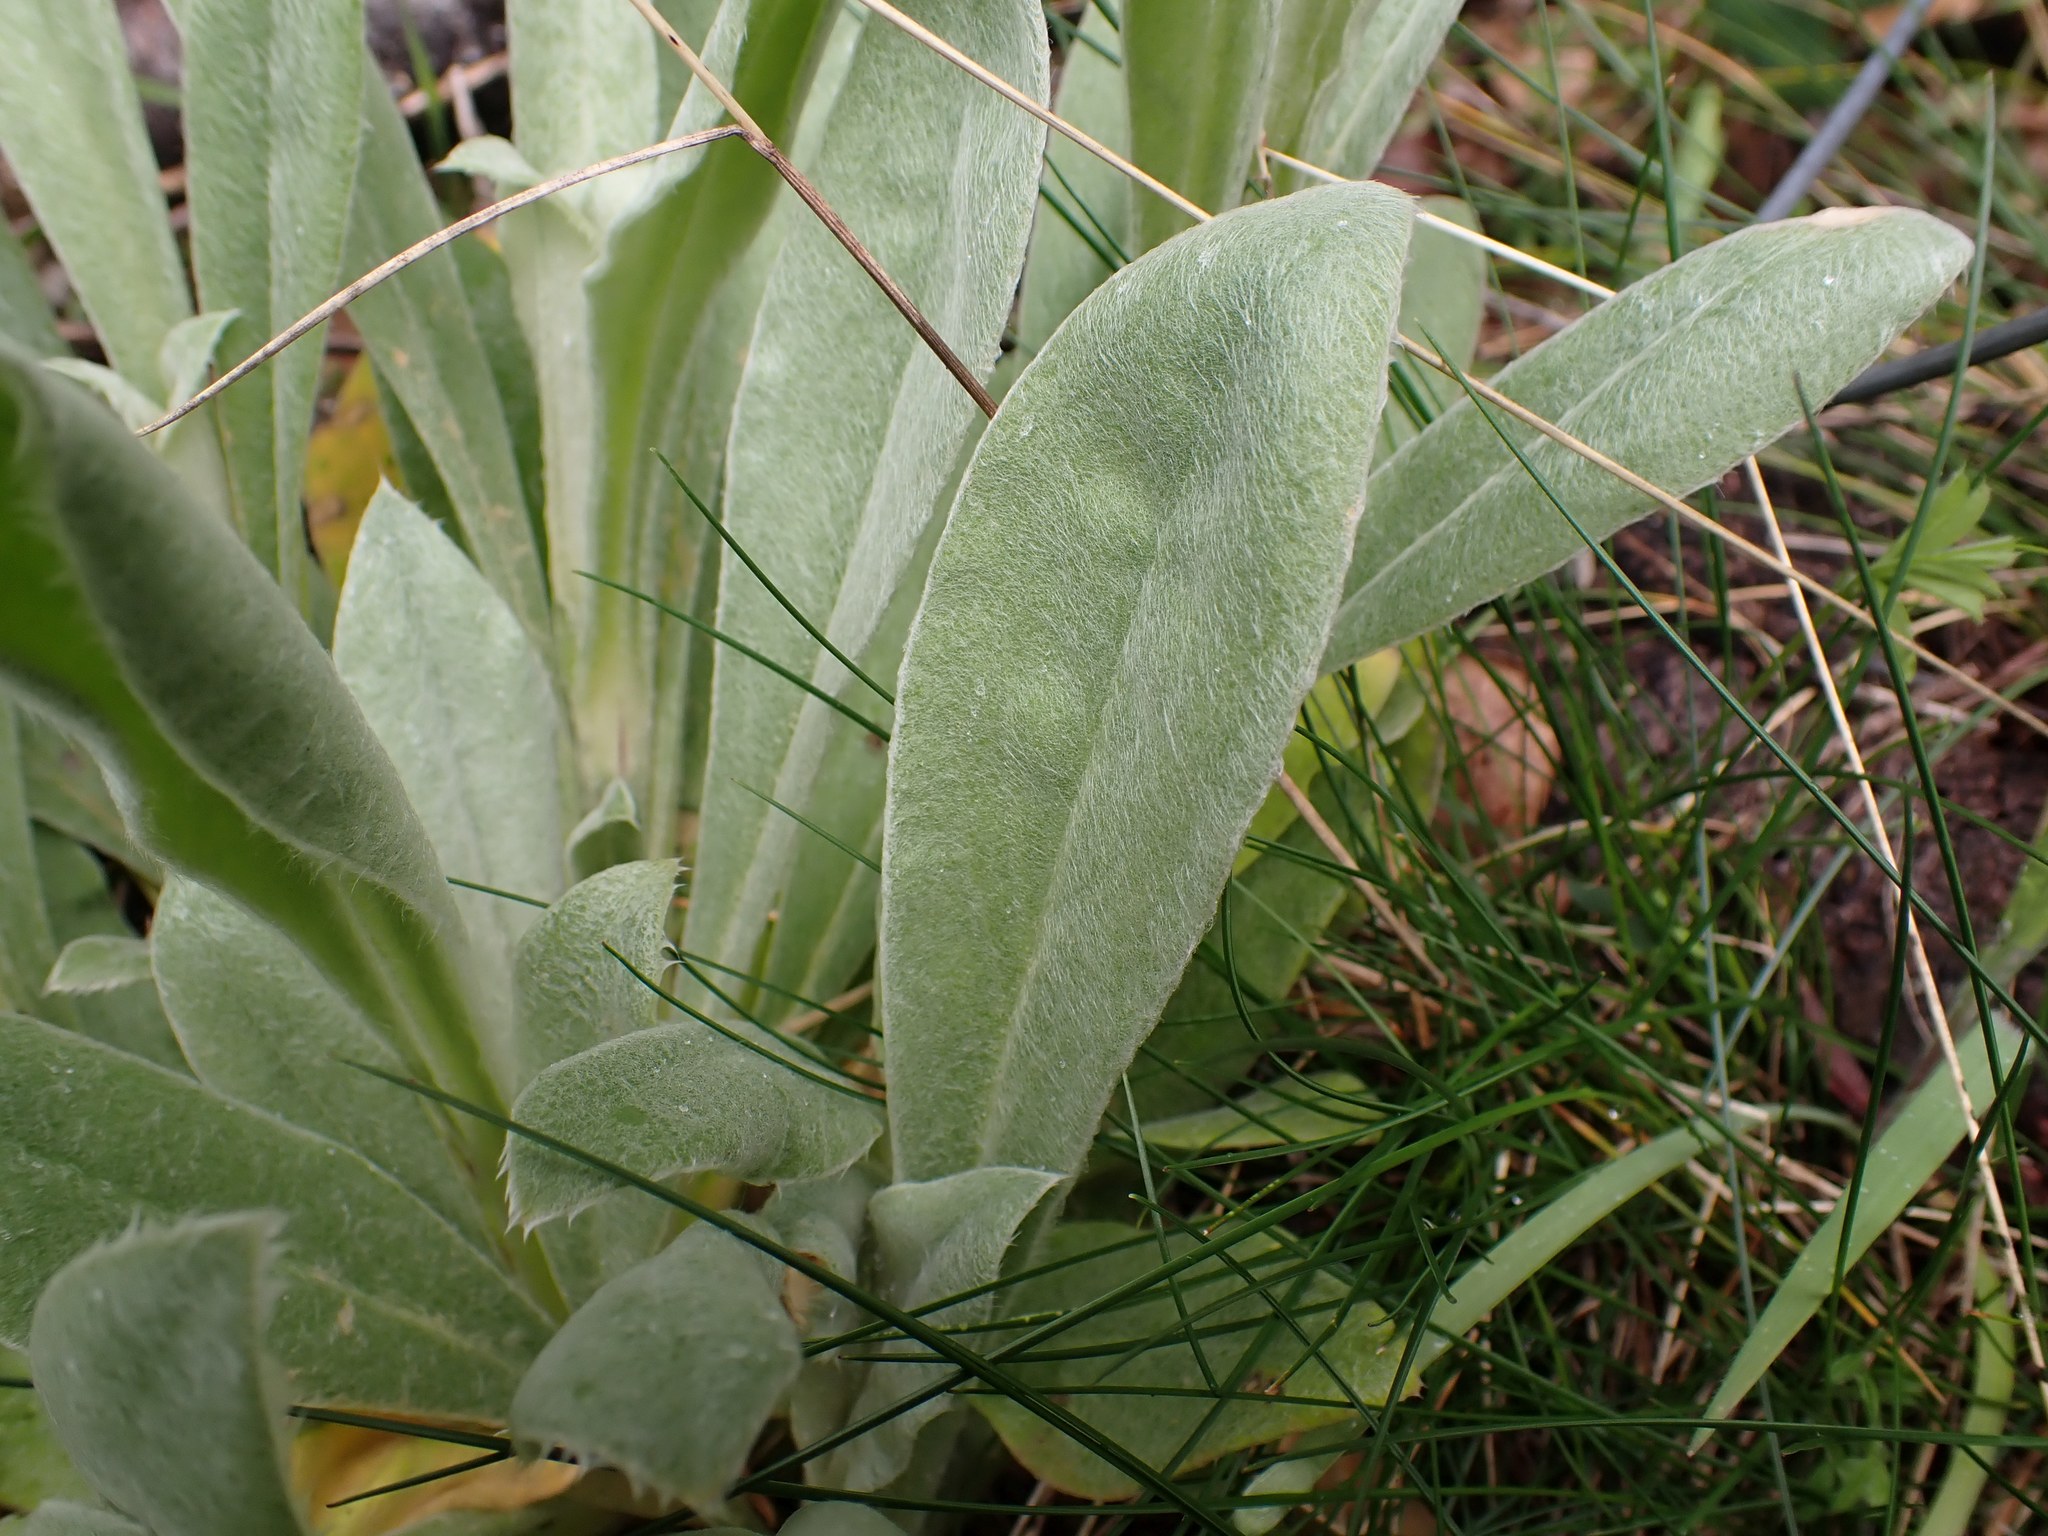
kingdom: Plantae
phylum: Tracheophyta
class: Magnoliopsida
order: Caryophyllales
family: Caryophyllaceae
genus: Silene
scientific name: Silene coronaria
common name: Rose campion
